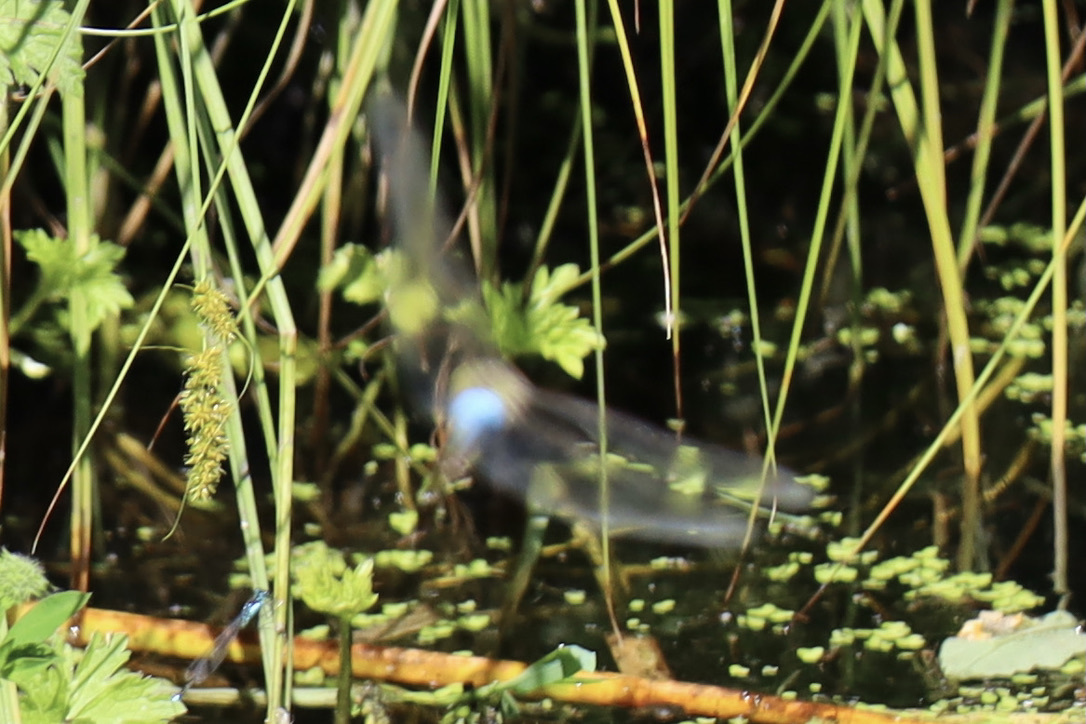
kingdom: Animalia
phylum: Arthropoda
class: Insecta
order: Odonata
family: Aeshnidae
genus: Anax
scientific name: Anax junius
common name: Common green darner
